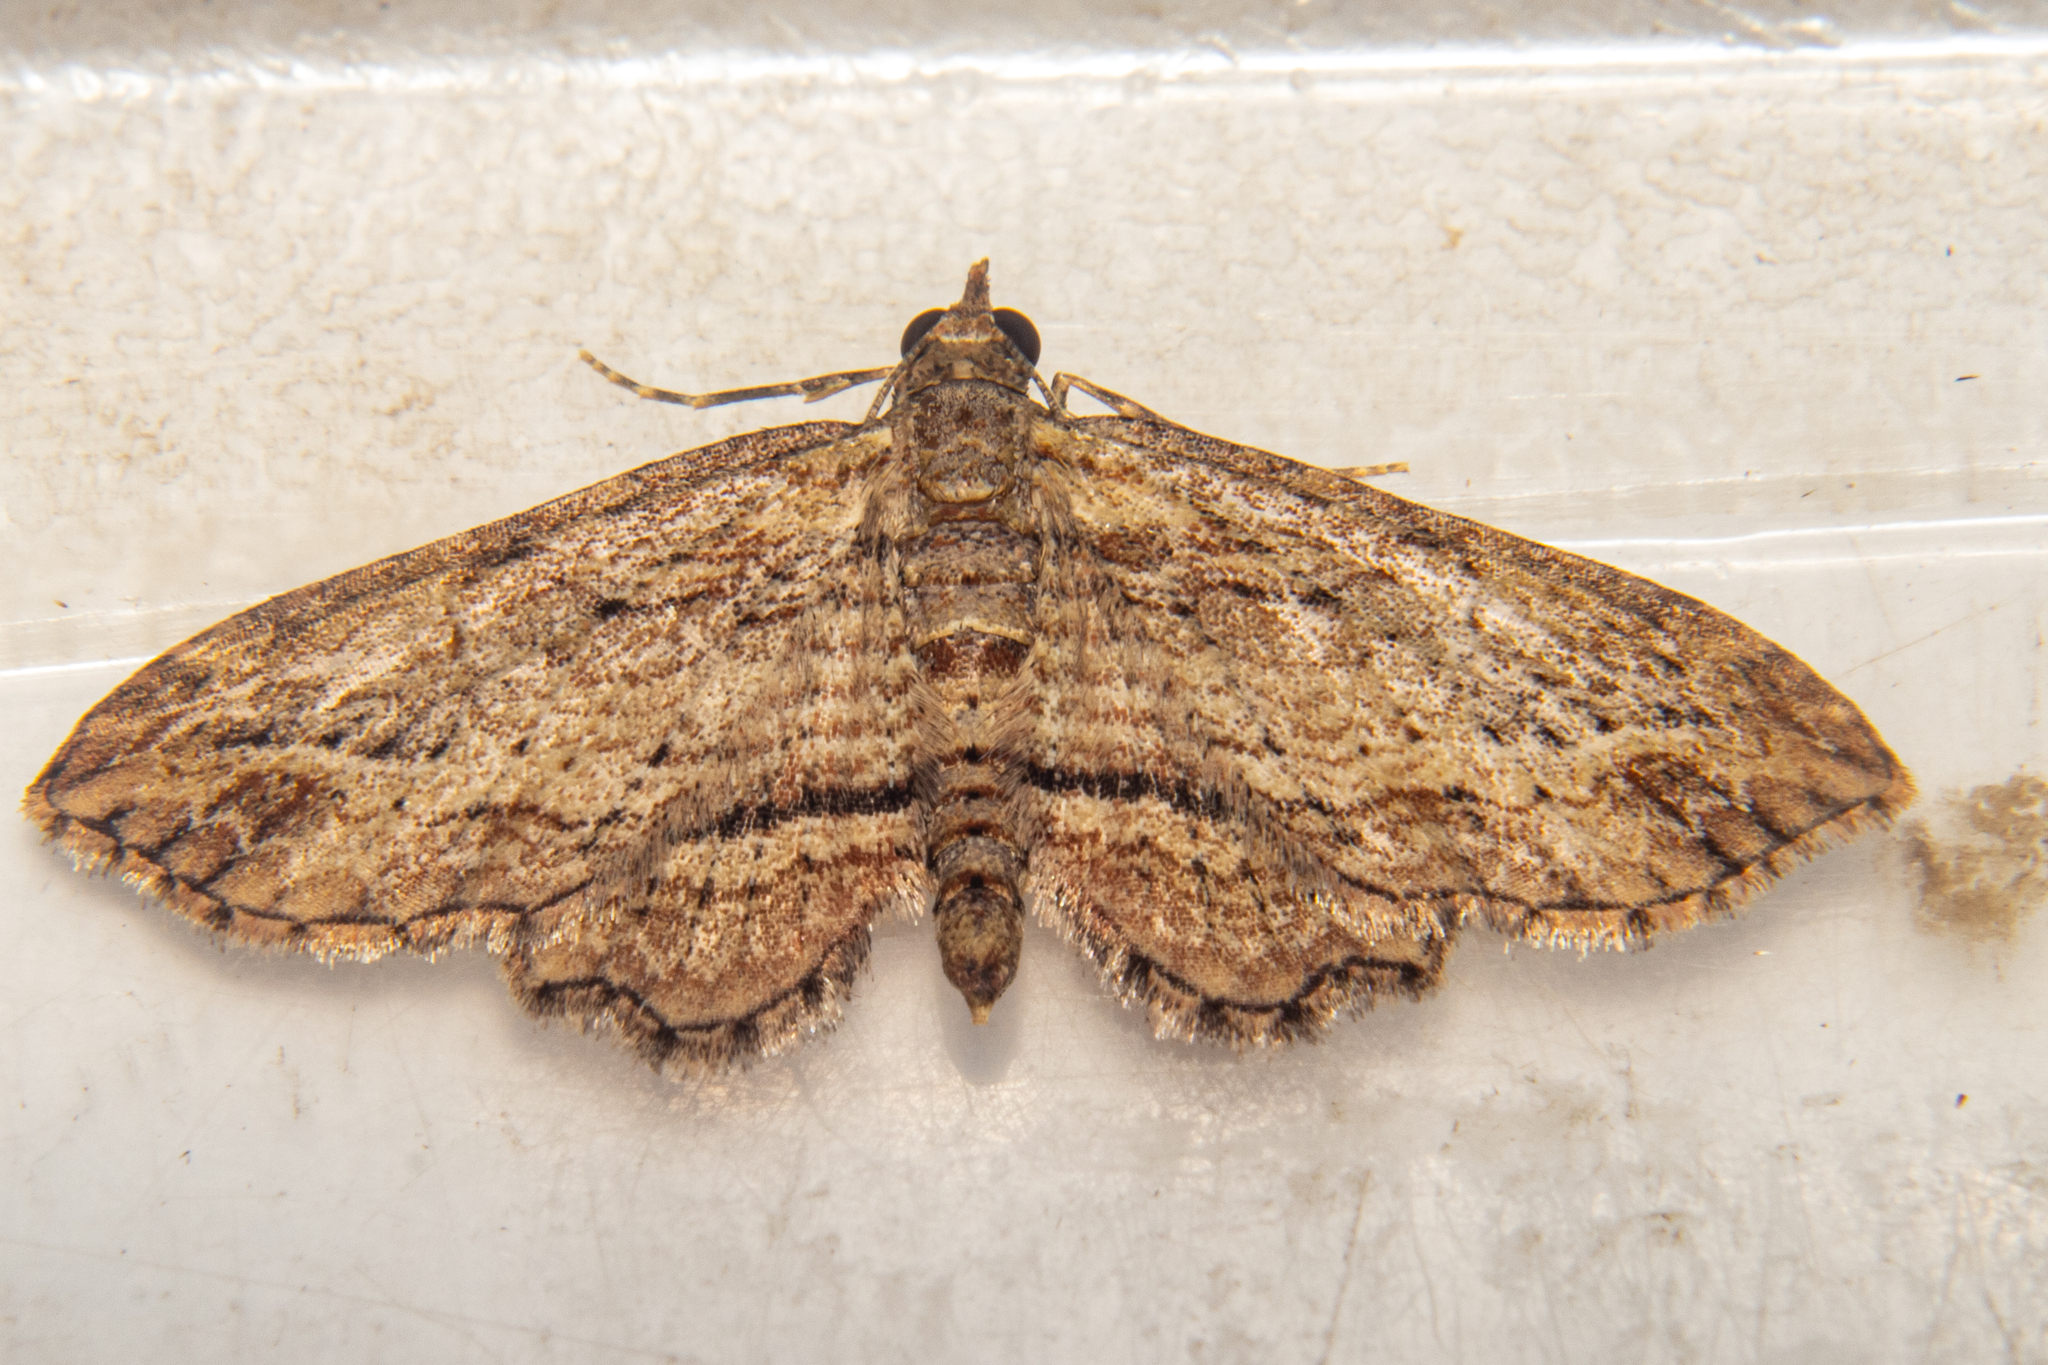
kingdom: Animalia
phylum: Arthropoda
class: Insecta
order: Lepidoptera
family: Geometridae
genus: Chloroclystis
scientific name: Chloroclystis filata
